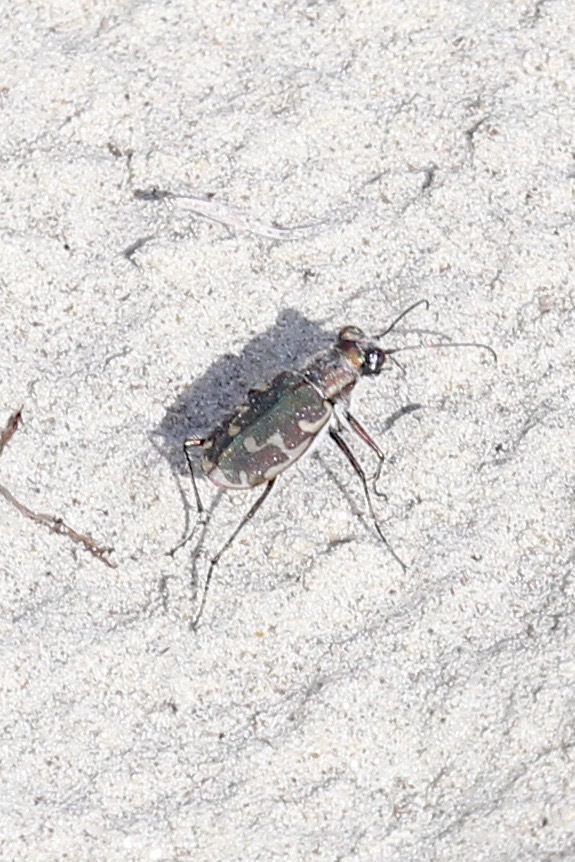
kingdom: Animalia
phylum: Arthropoda
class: Insecta
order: Coleoptera
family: Carabidae
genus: Cicindela
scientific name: Cicindela repanda
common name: Bronzed tiger beetle
